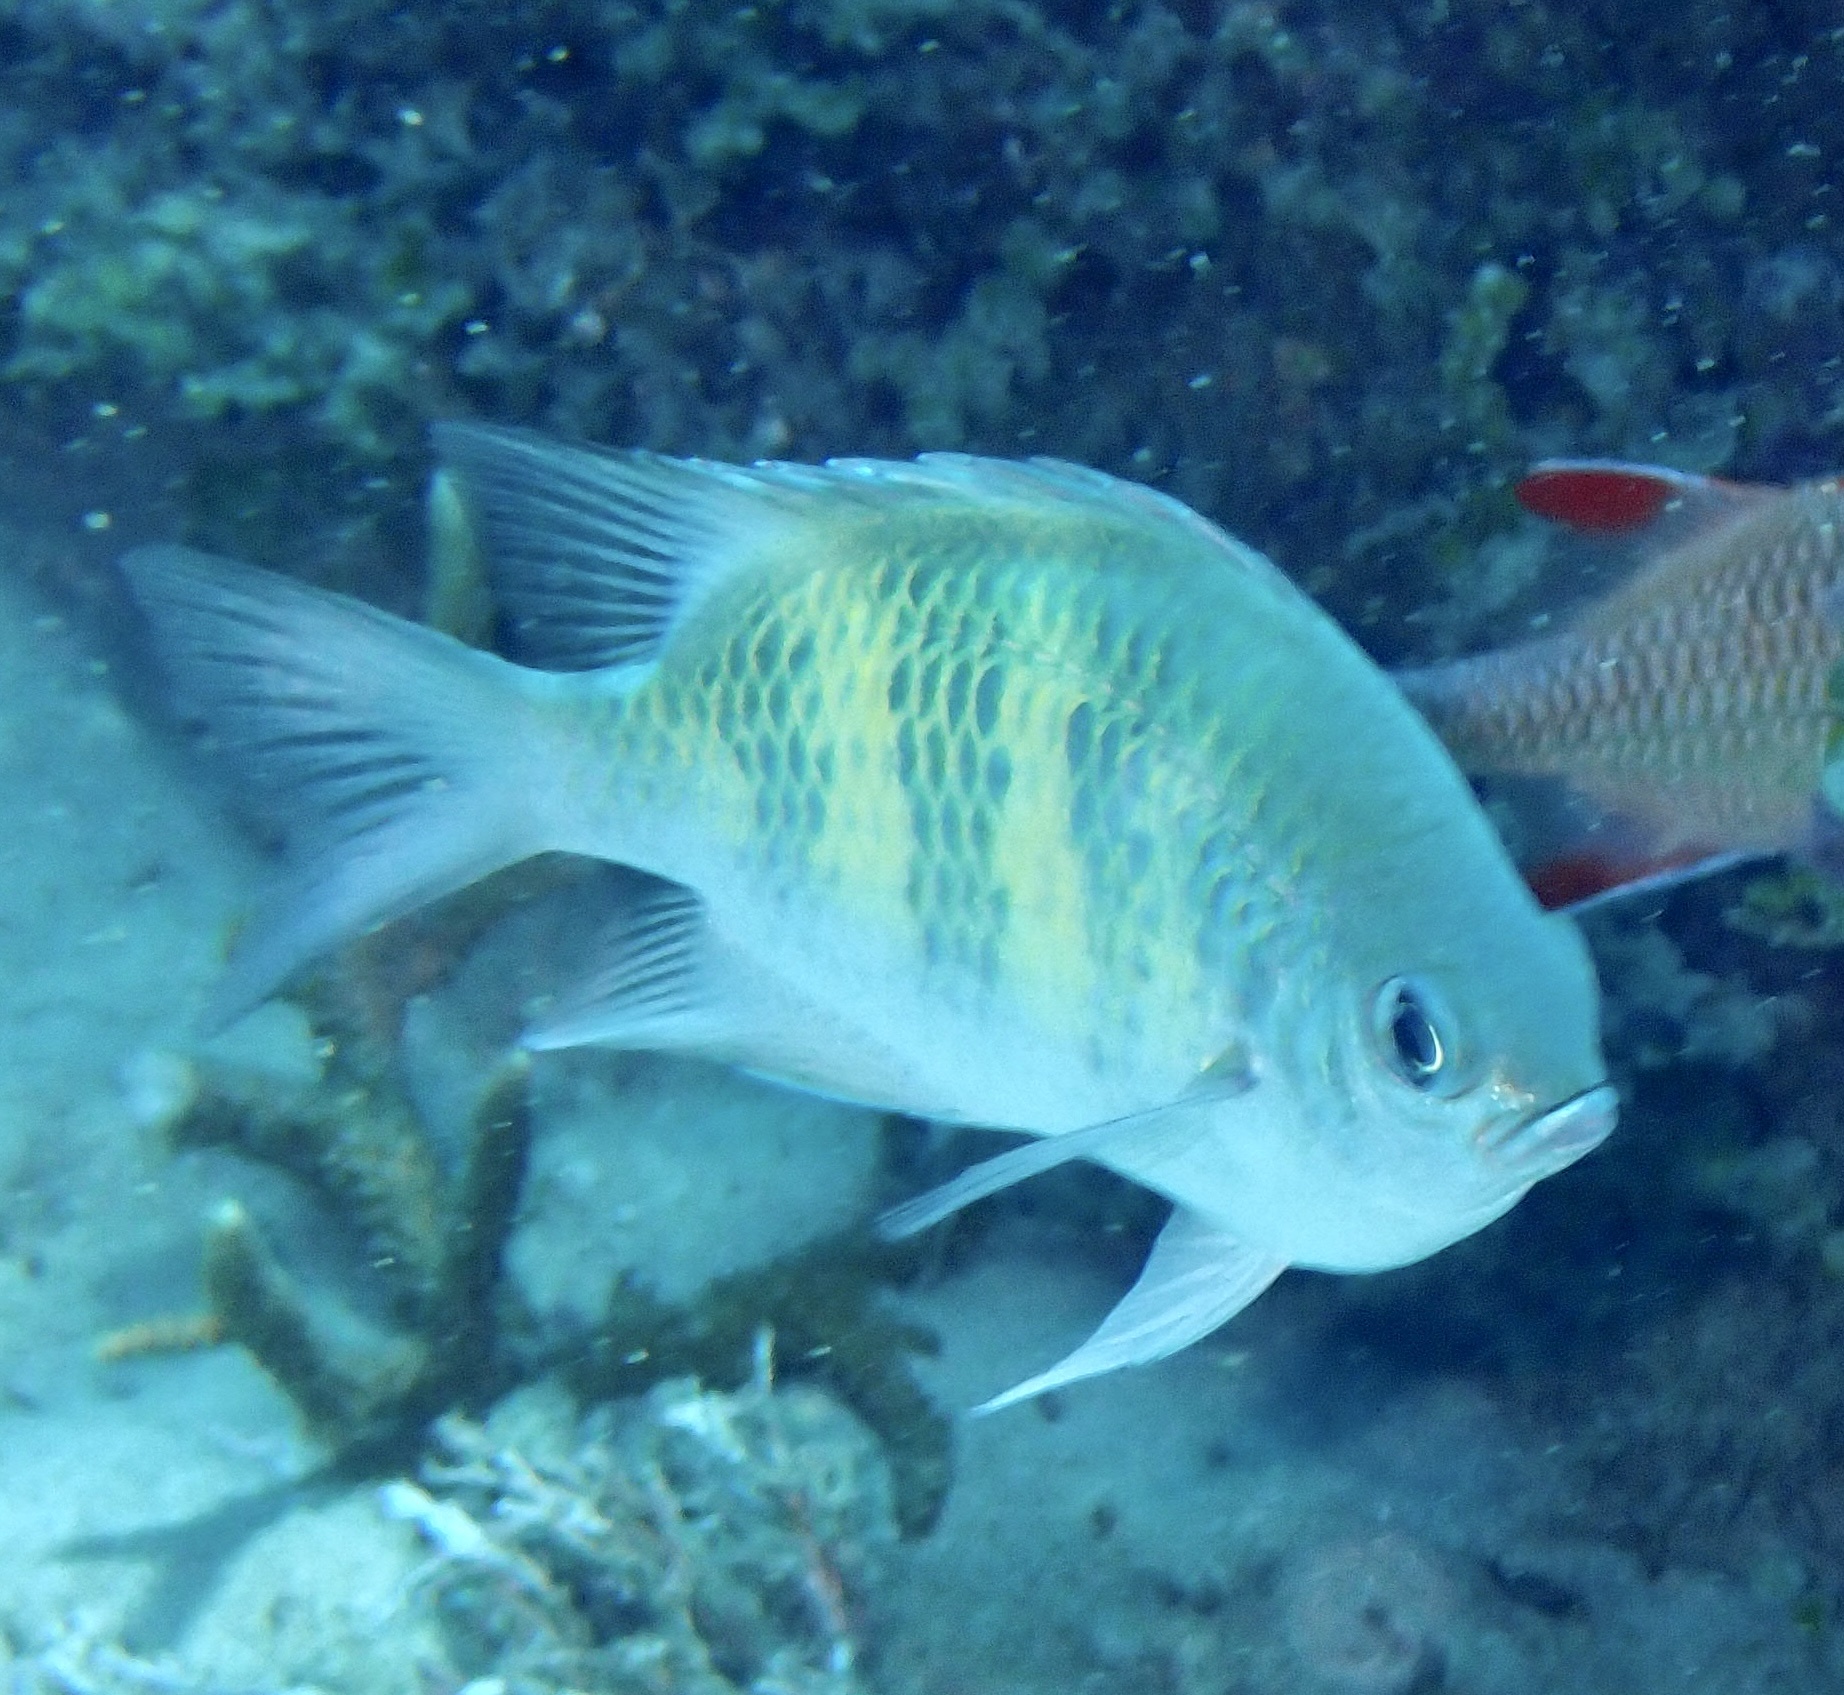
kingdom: Animalia
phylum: Chordata
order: Perciformes
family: Pomacentridae
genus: Amblyglyphidodon
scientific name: Amblyglyphidodon curacao
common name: Staghorn damsel
